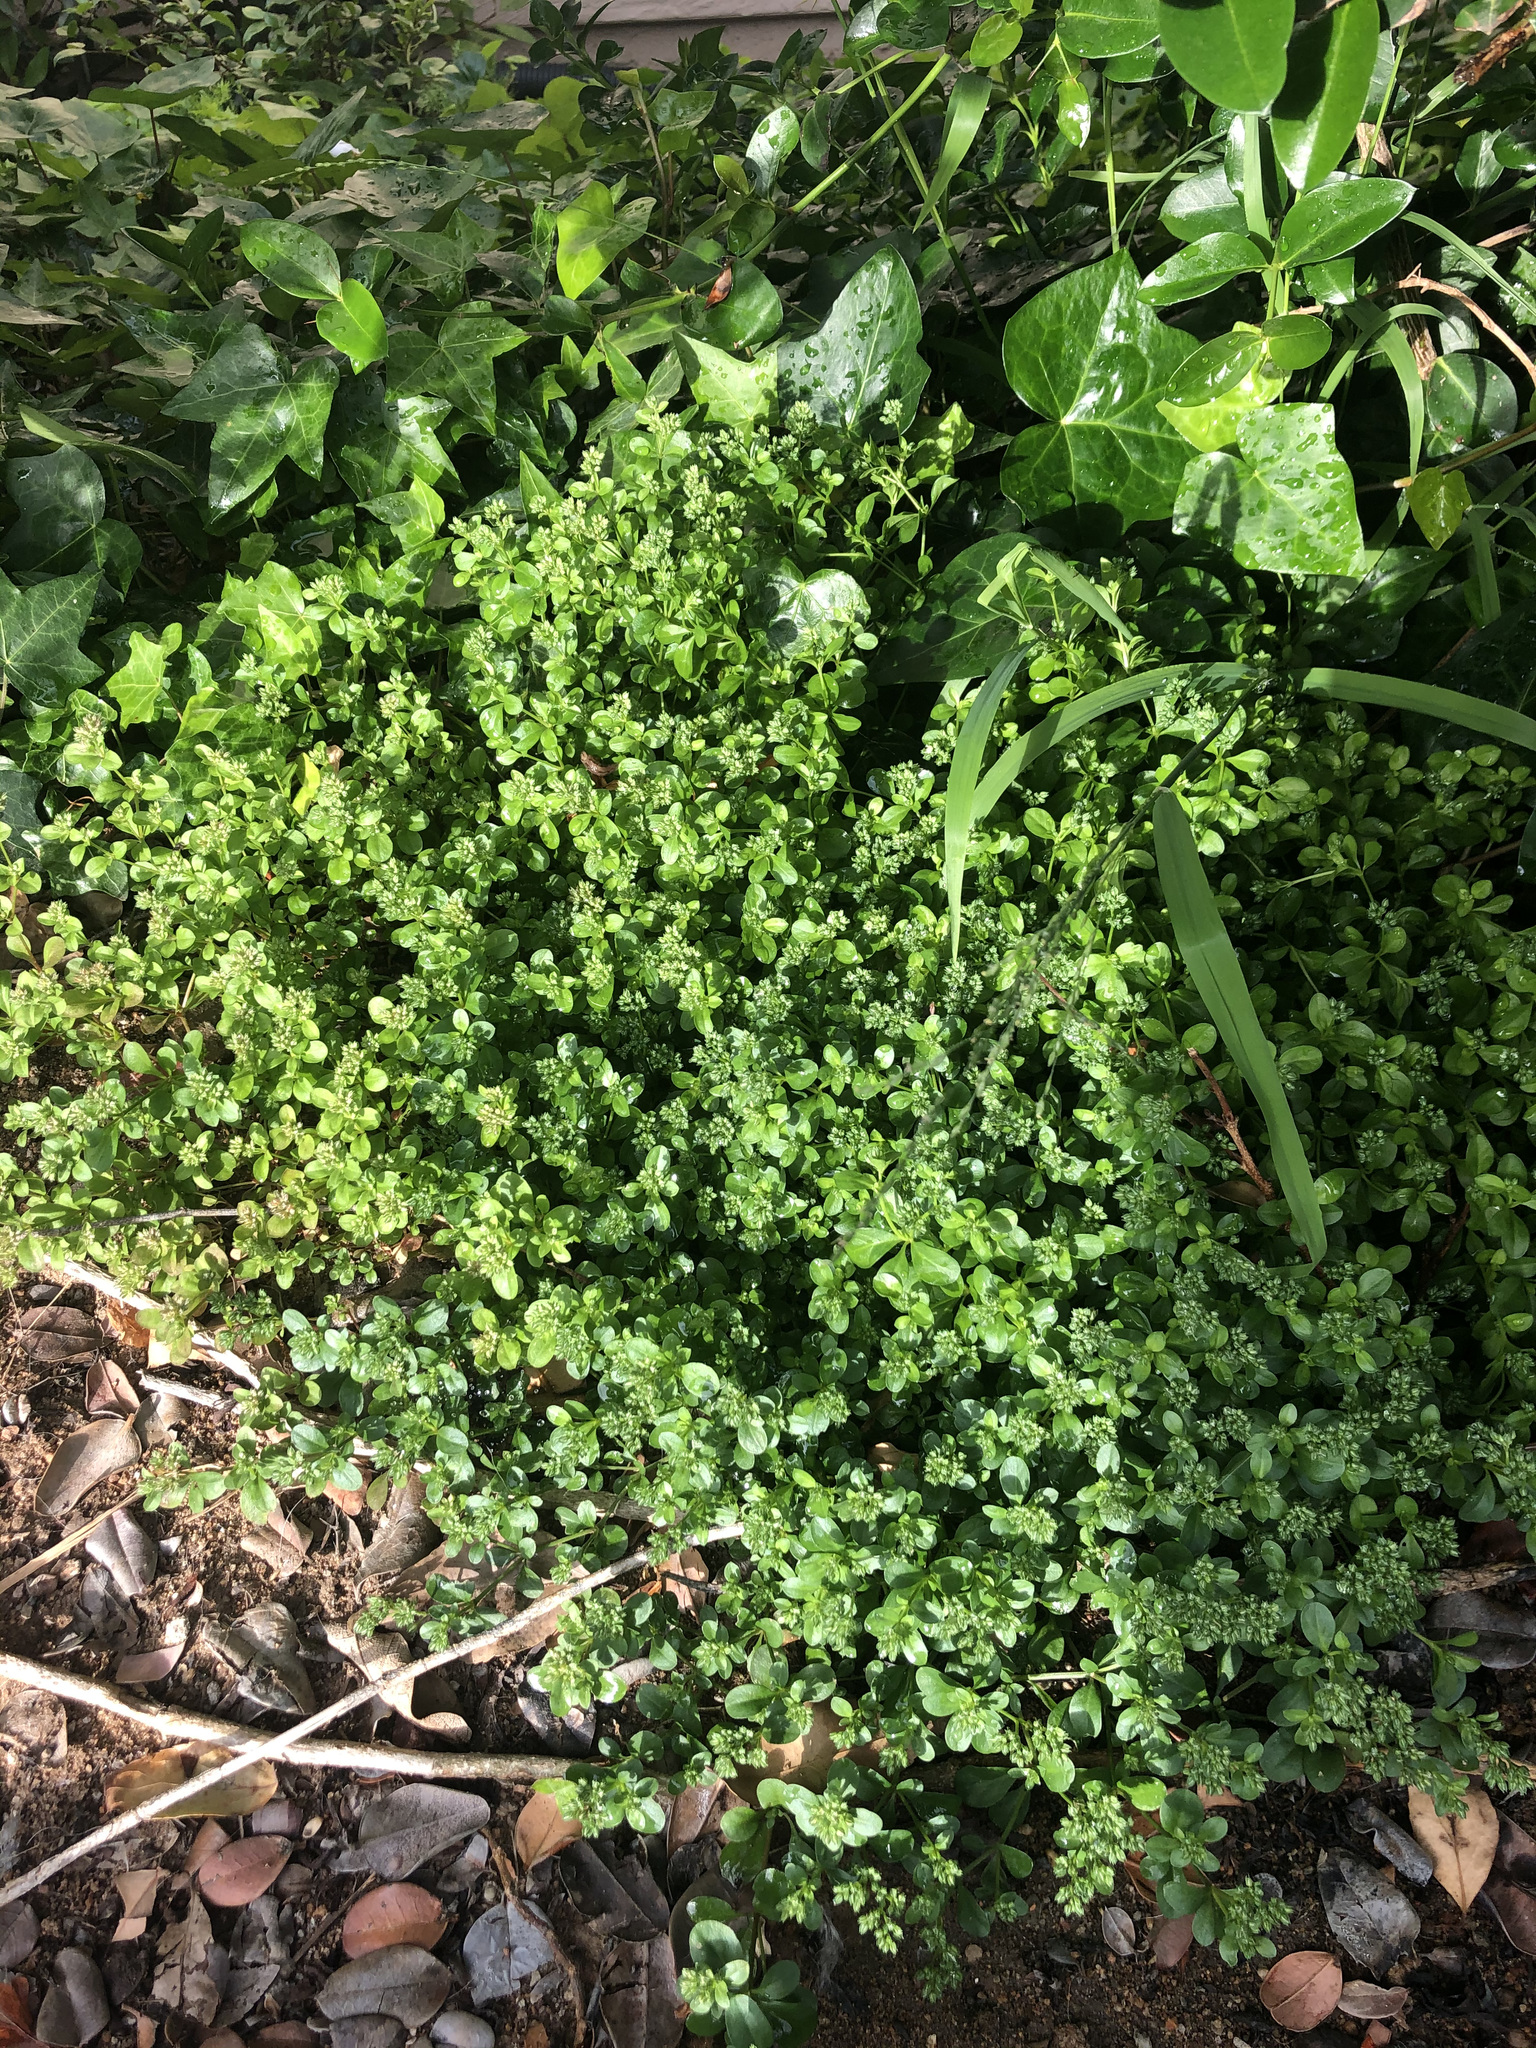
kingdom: Plantae
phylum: Tracheophyta
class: Magnoliopsida
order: Caryophyllales
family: Caryophyllaceae
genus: Polycarpon
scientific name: Polycarpon tetraphyllum
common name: Four-leaved all-seed
